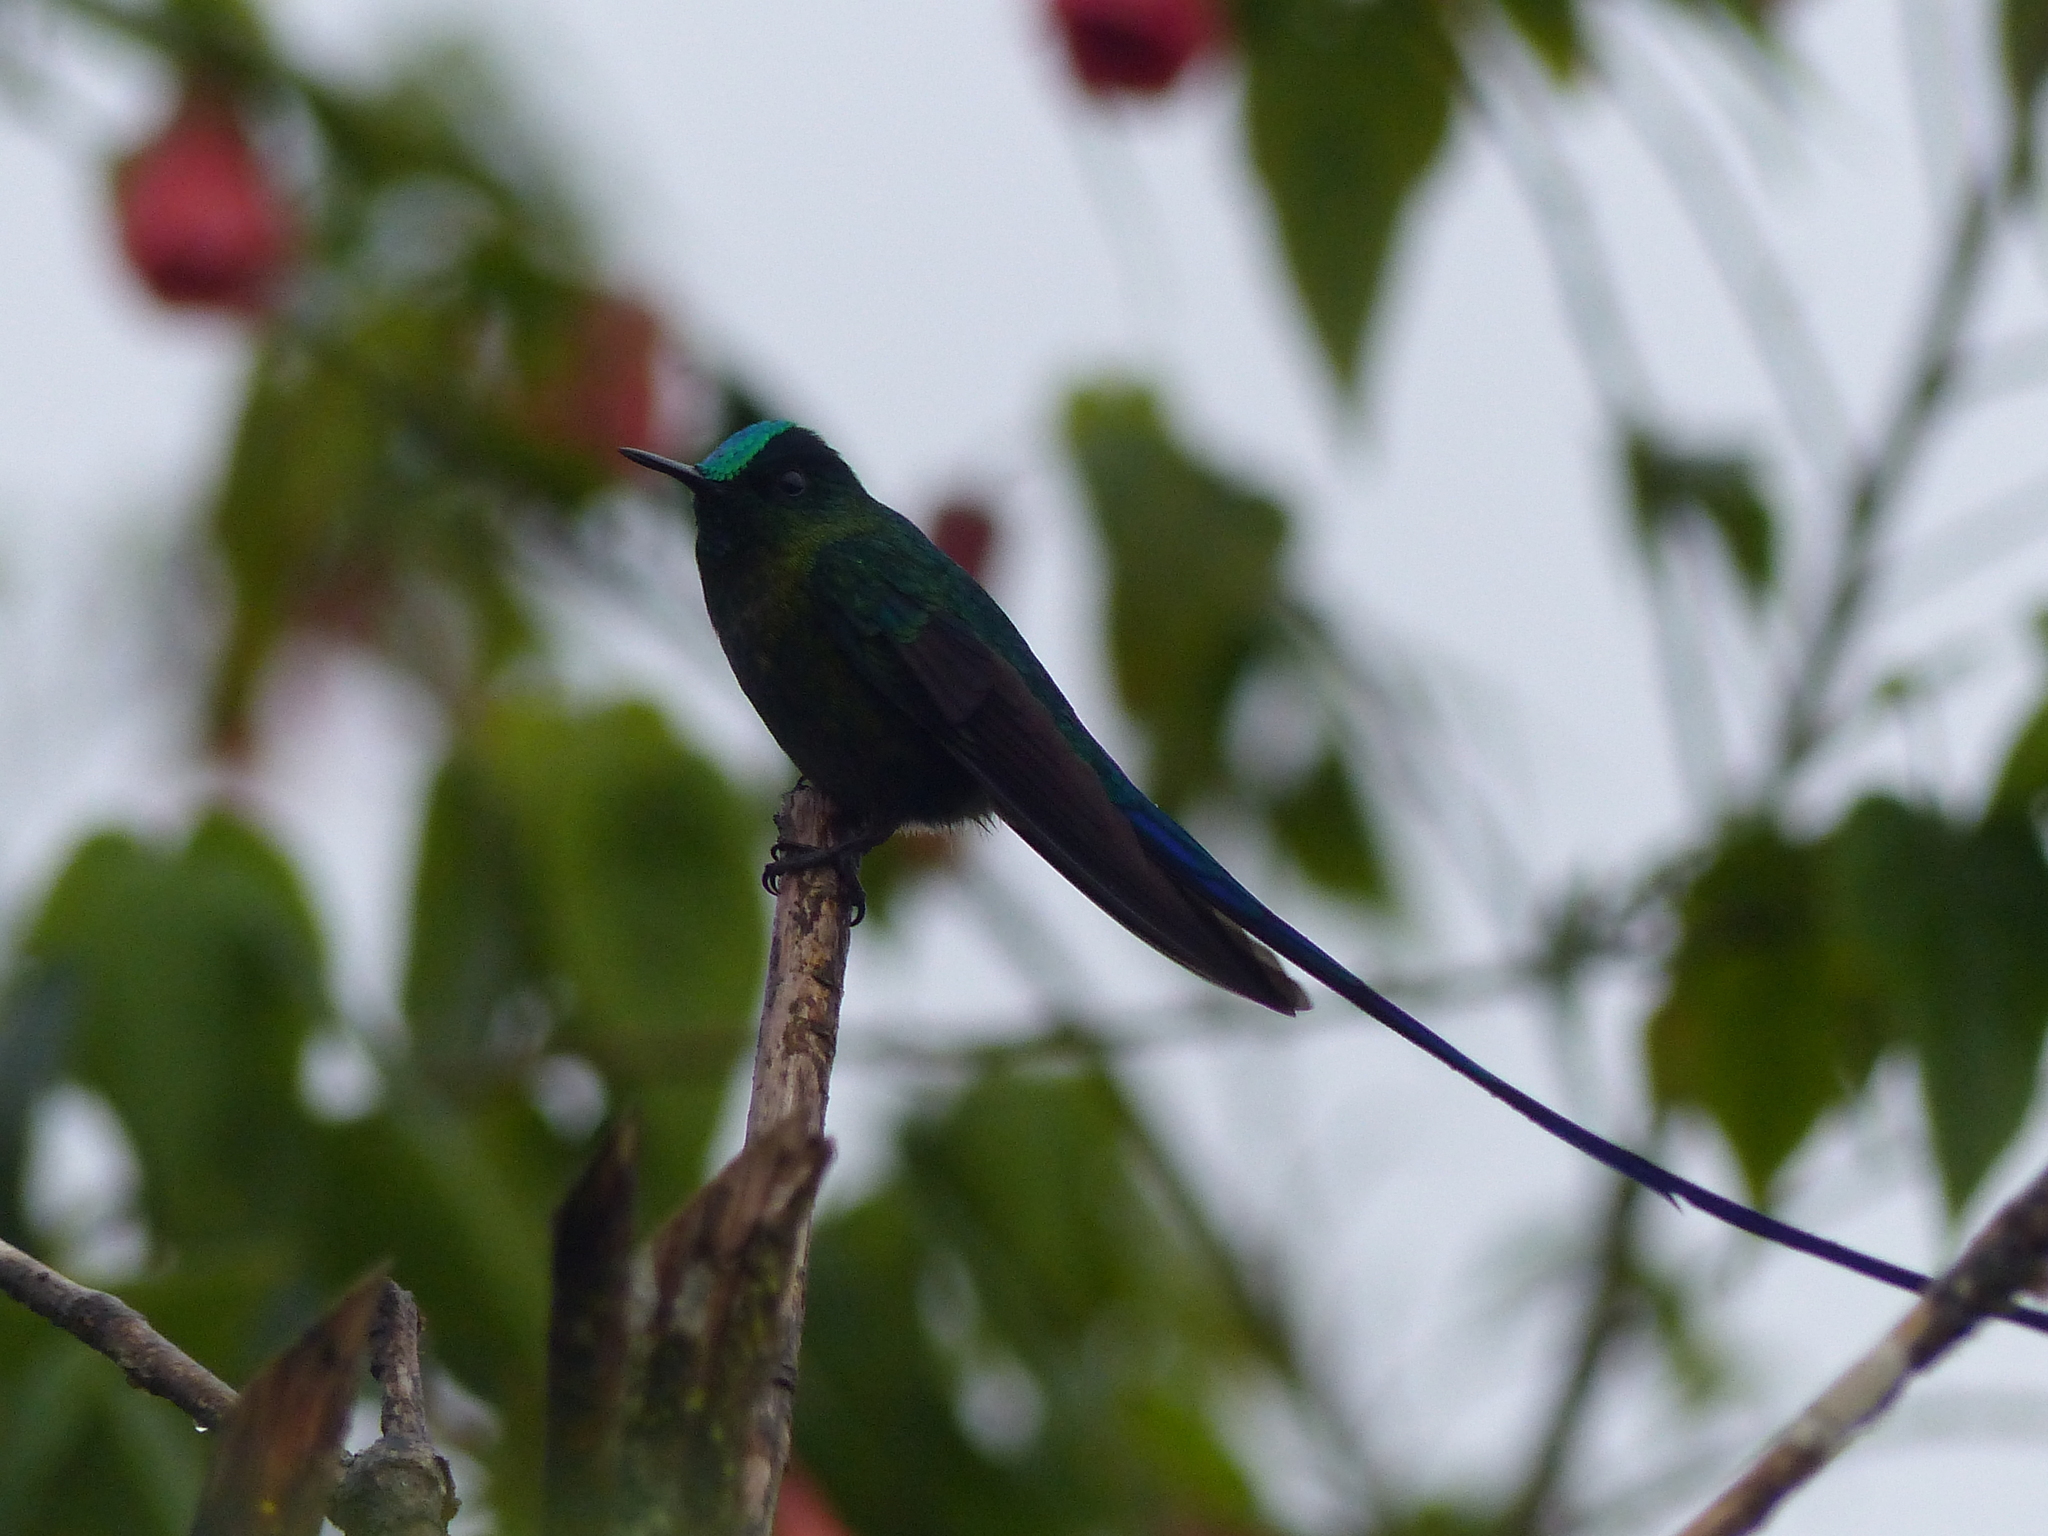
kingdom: Animalia
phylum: Chordata
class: Aves
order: Apodiformes
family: Trochilidae
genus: Aglaiocercus
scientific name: Aglaiocercus kingii
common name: Long-tailed sylph
